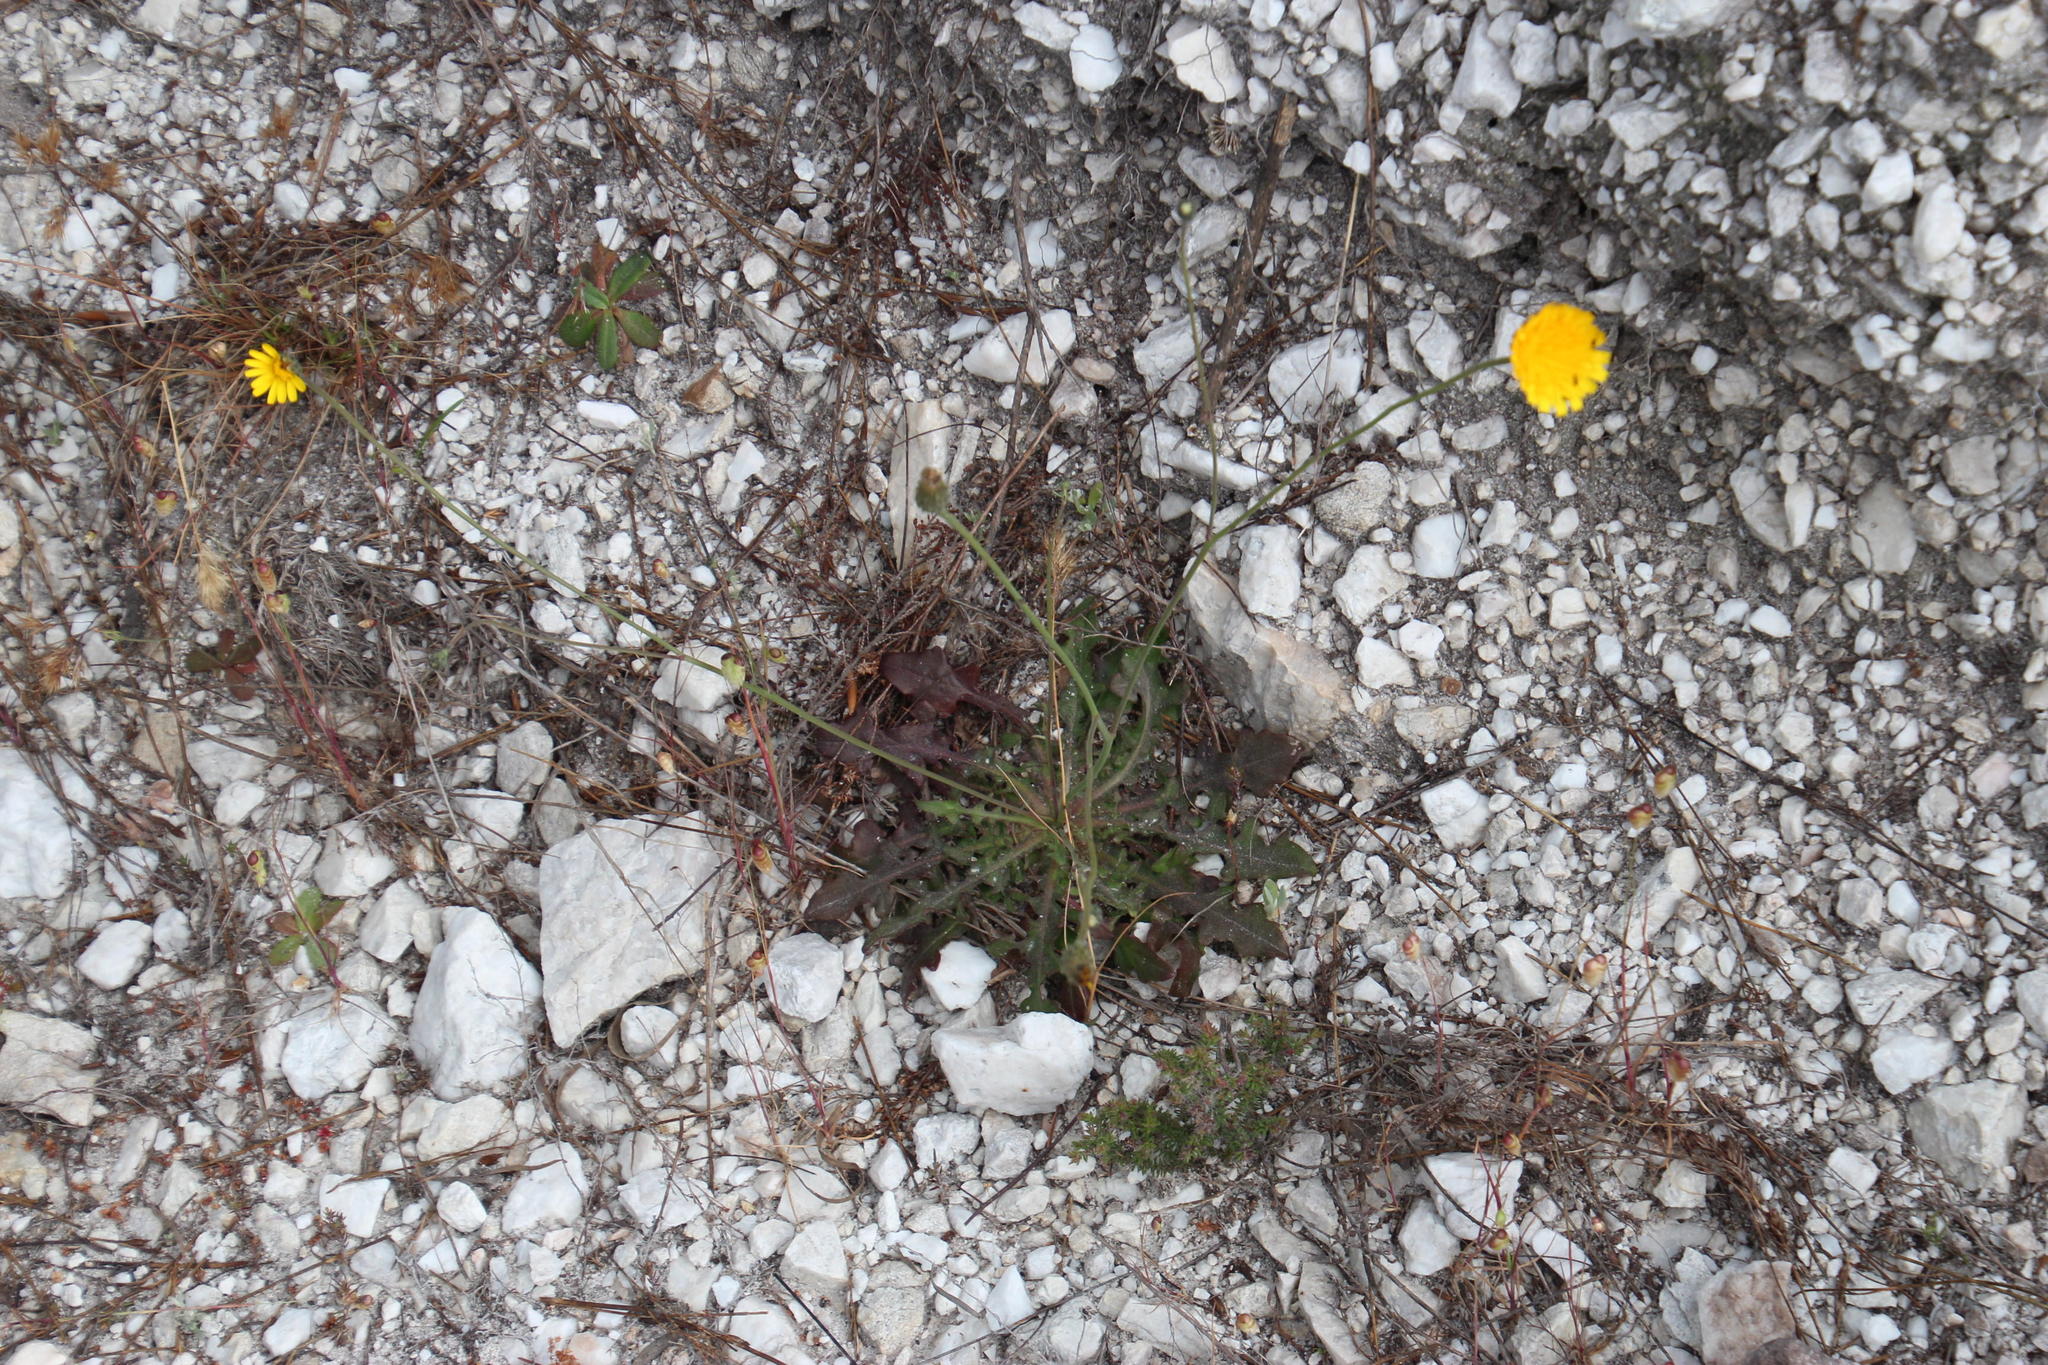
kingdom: Plantae
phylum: Tracheophyta
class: Magnoliopsida
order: Asterales
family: Asteraceae
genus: Hypochaeris
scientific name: Hypochaeris radicata
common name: Flatweed
